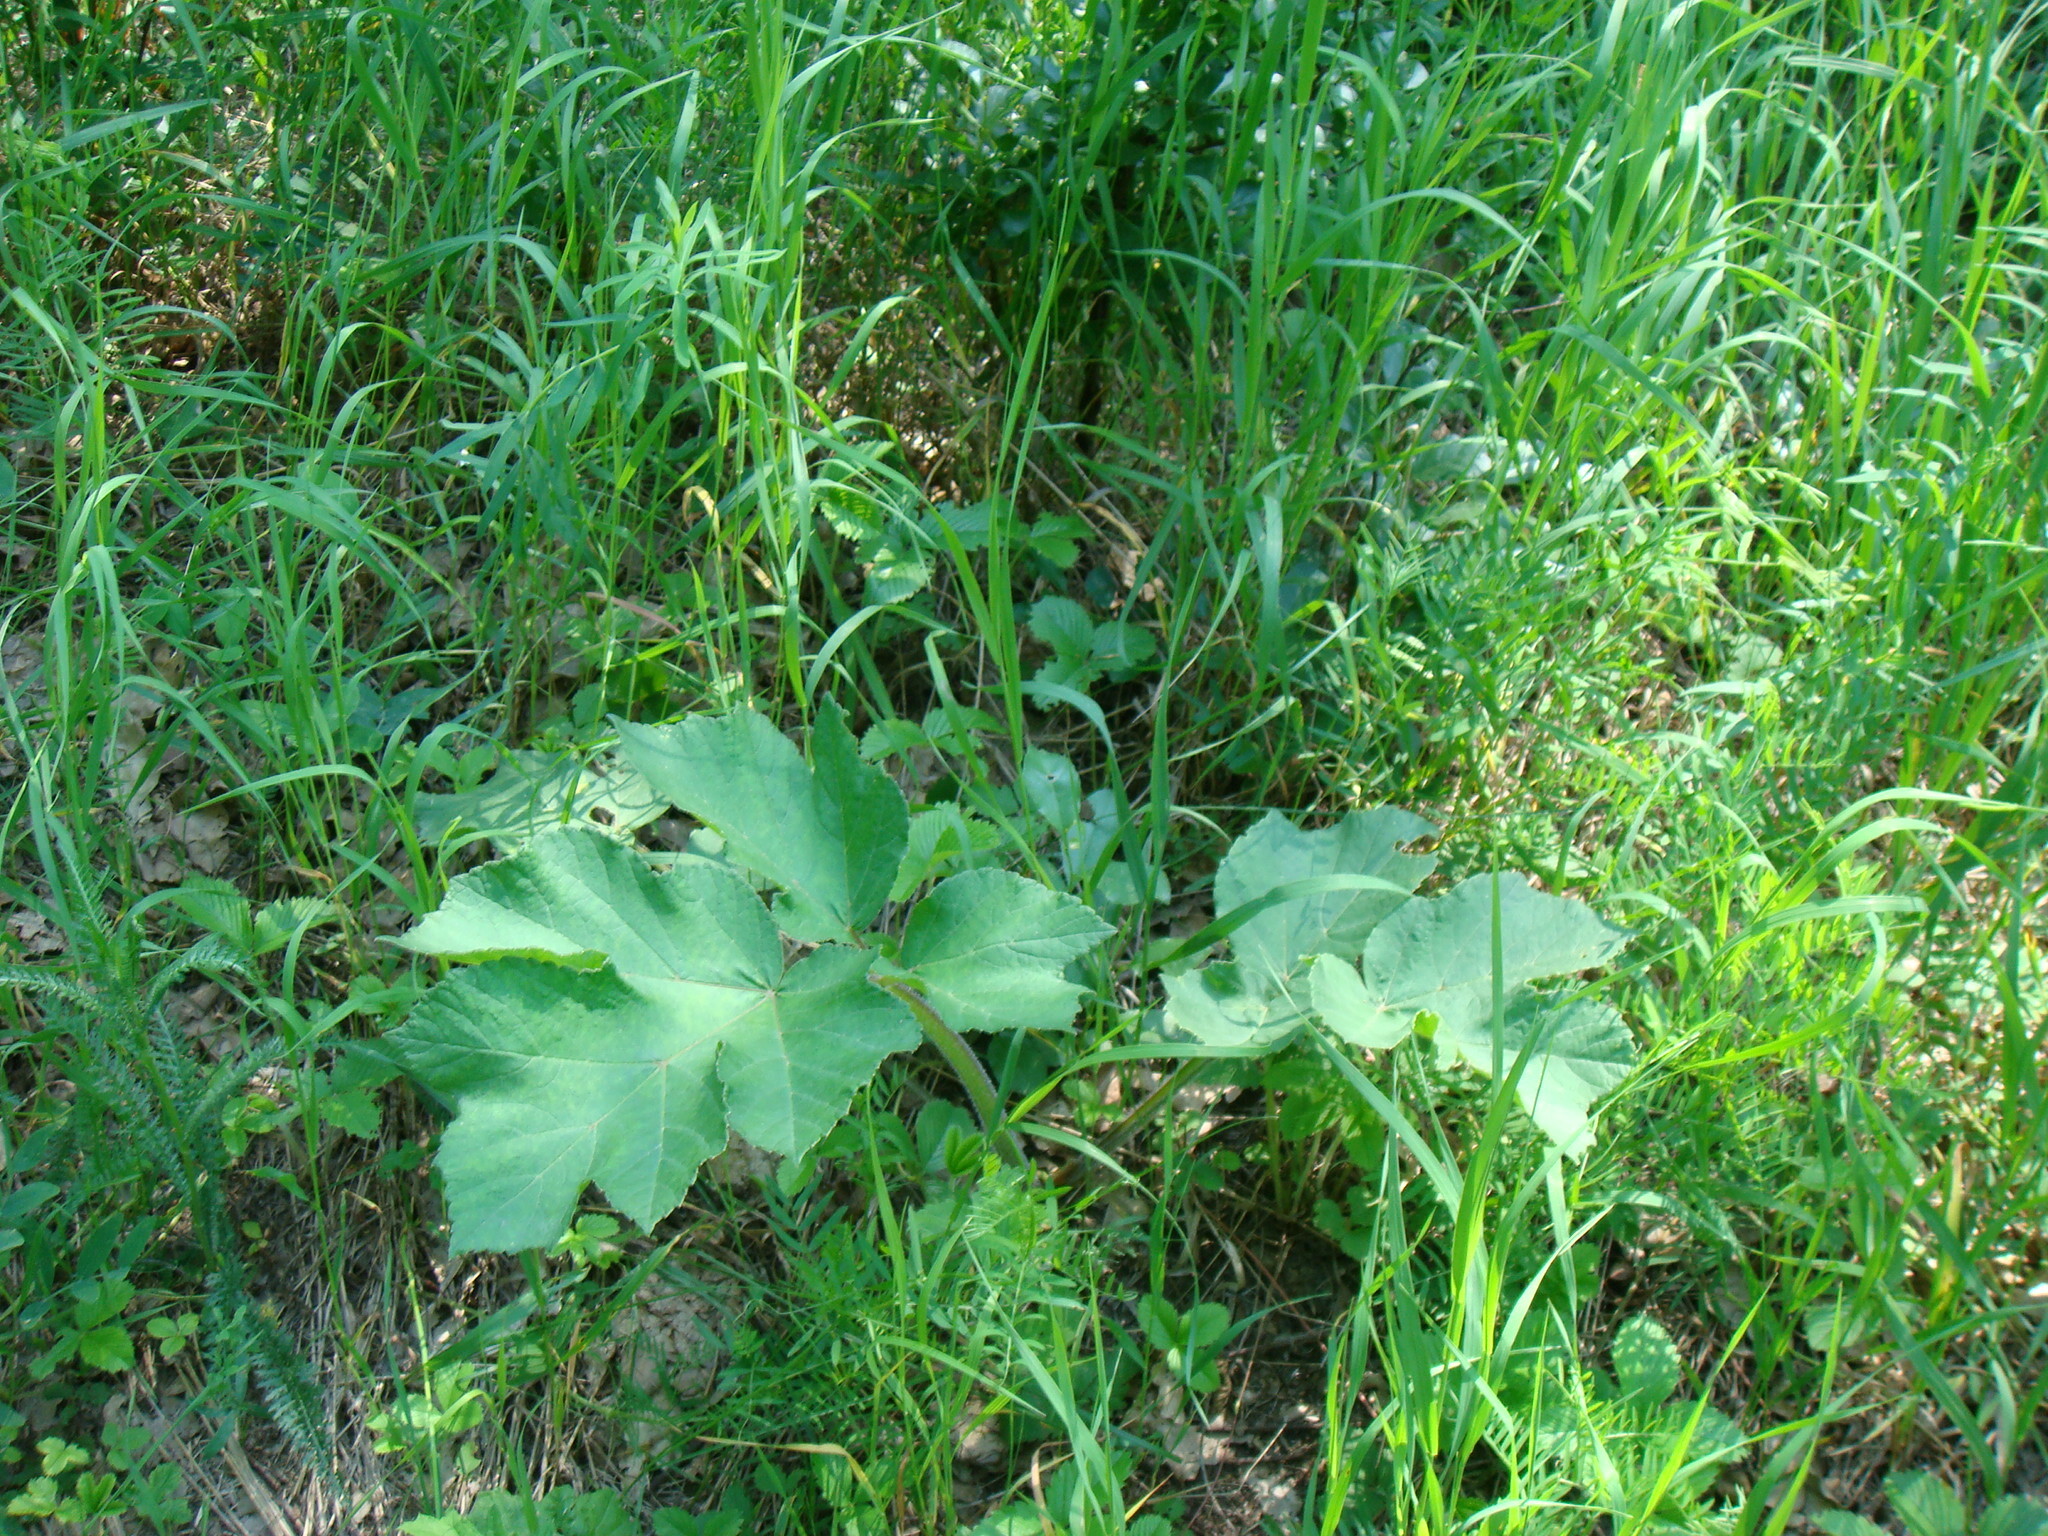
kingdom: Plantae
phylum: Tracheophyta
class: Magnoliopsida
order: Apiales
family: Apiaceae
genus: Heracleum
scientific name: Heracleum sphondylium
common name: Hogweed
